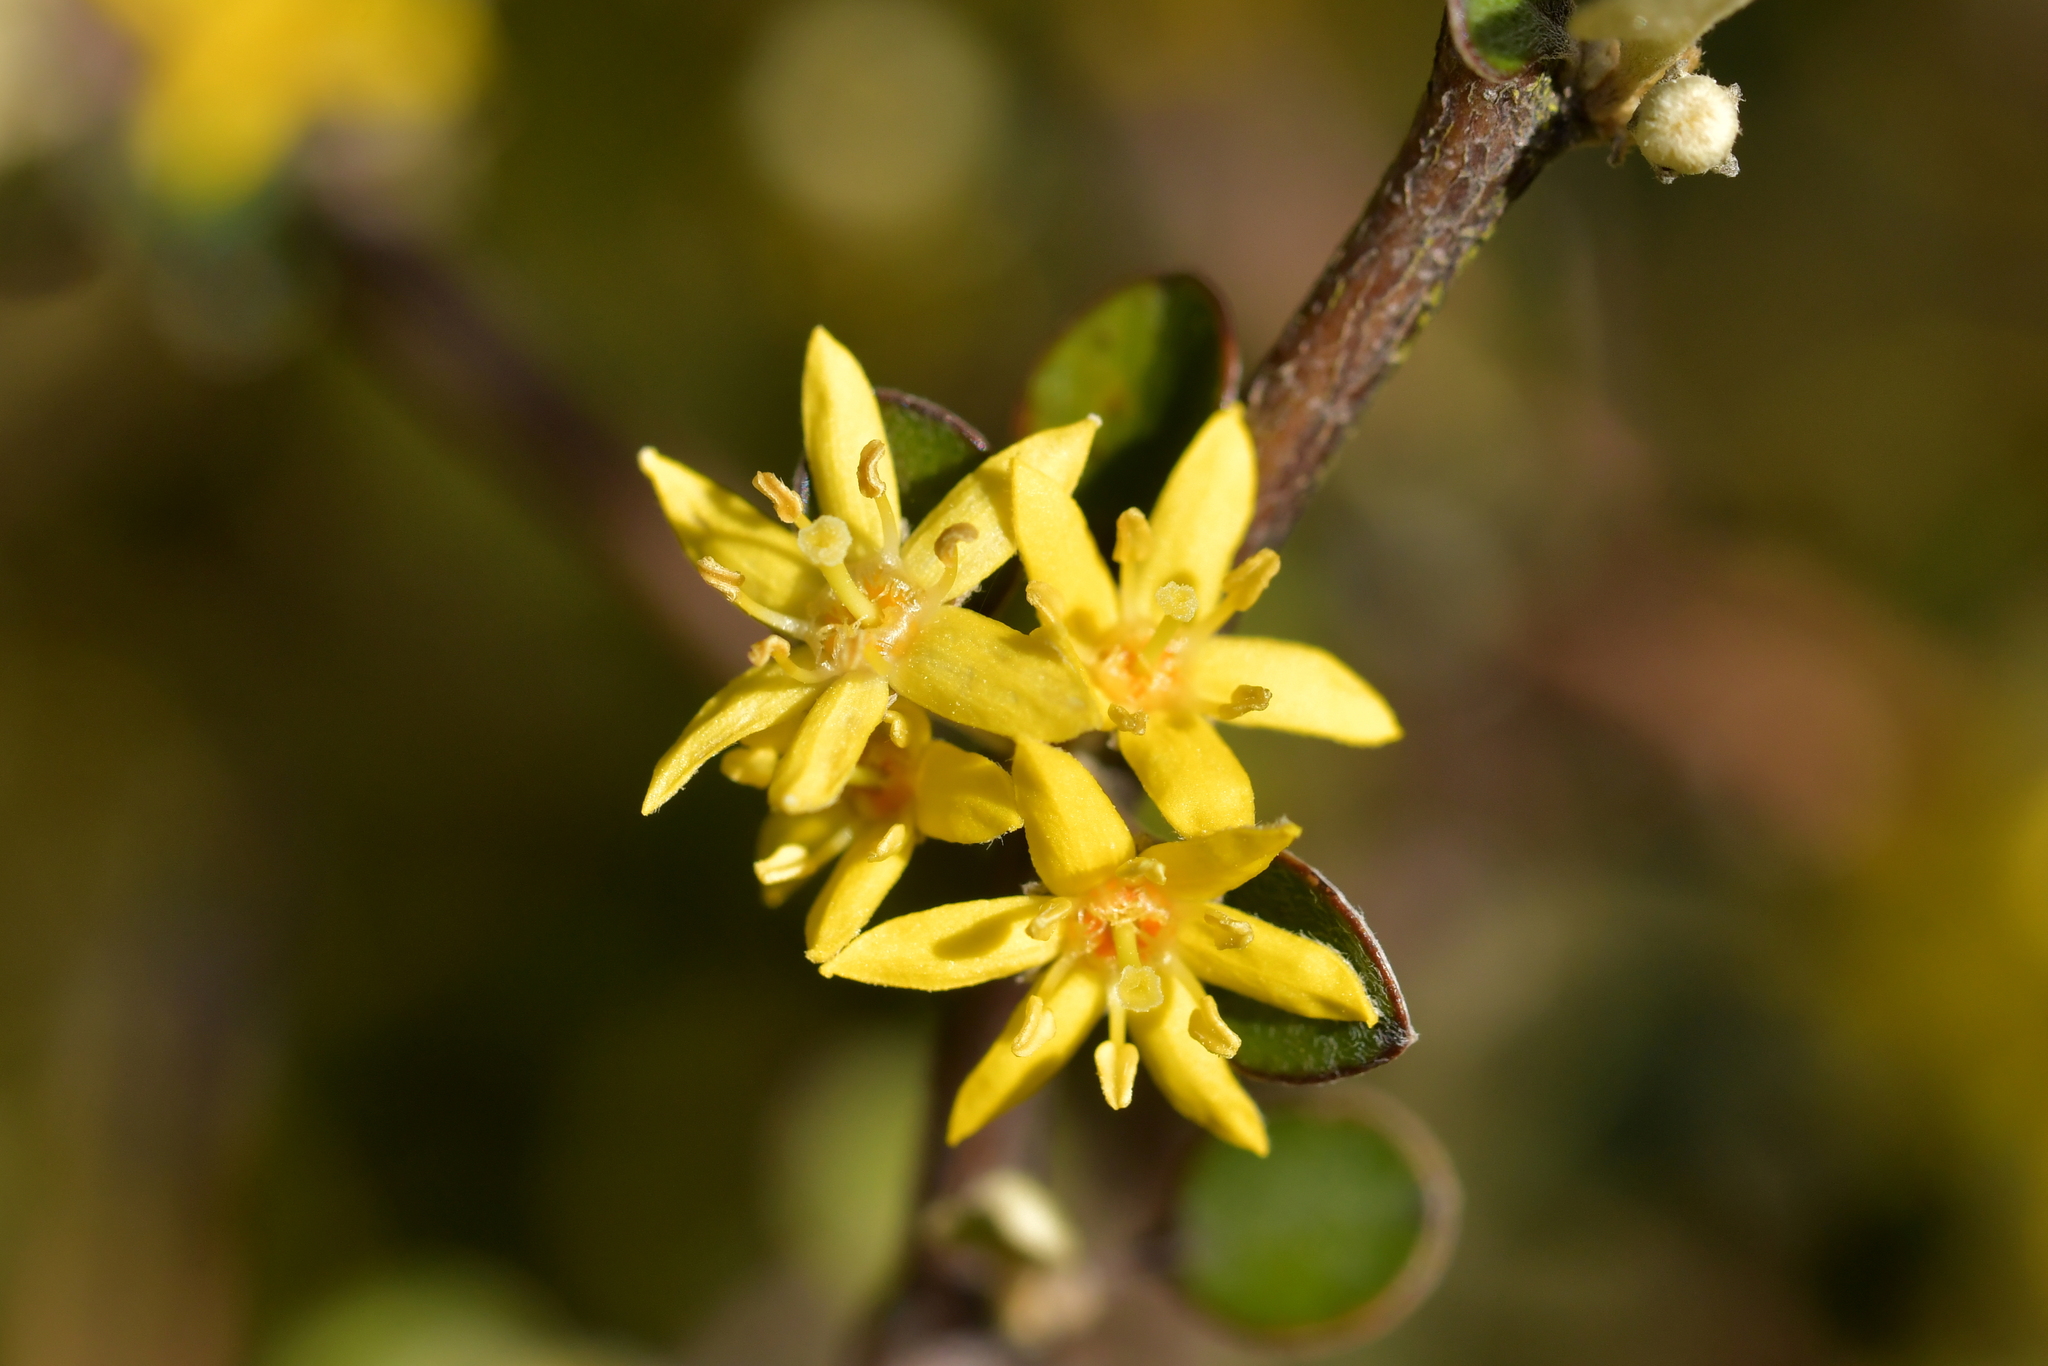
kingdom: Plantae
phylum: Tracheophyta
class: Magnoliopsida
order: Asterales
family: Argophyllaceae
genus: Corokia
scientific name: Corokia cotoneaster
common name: Wire nettingbush
